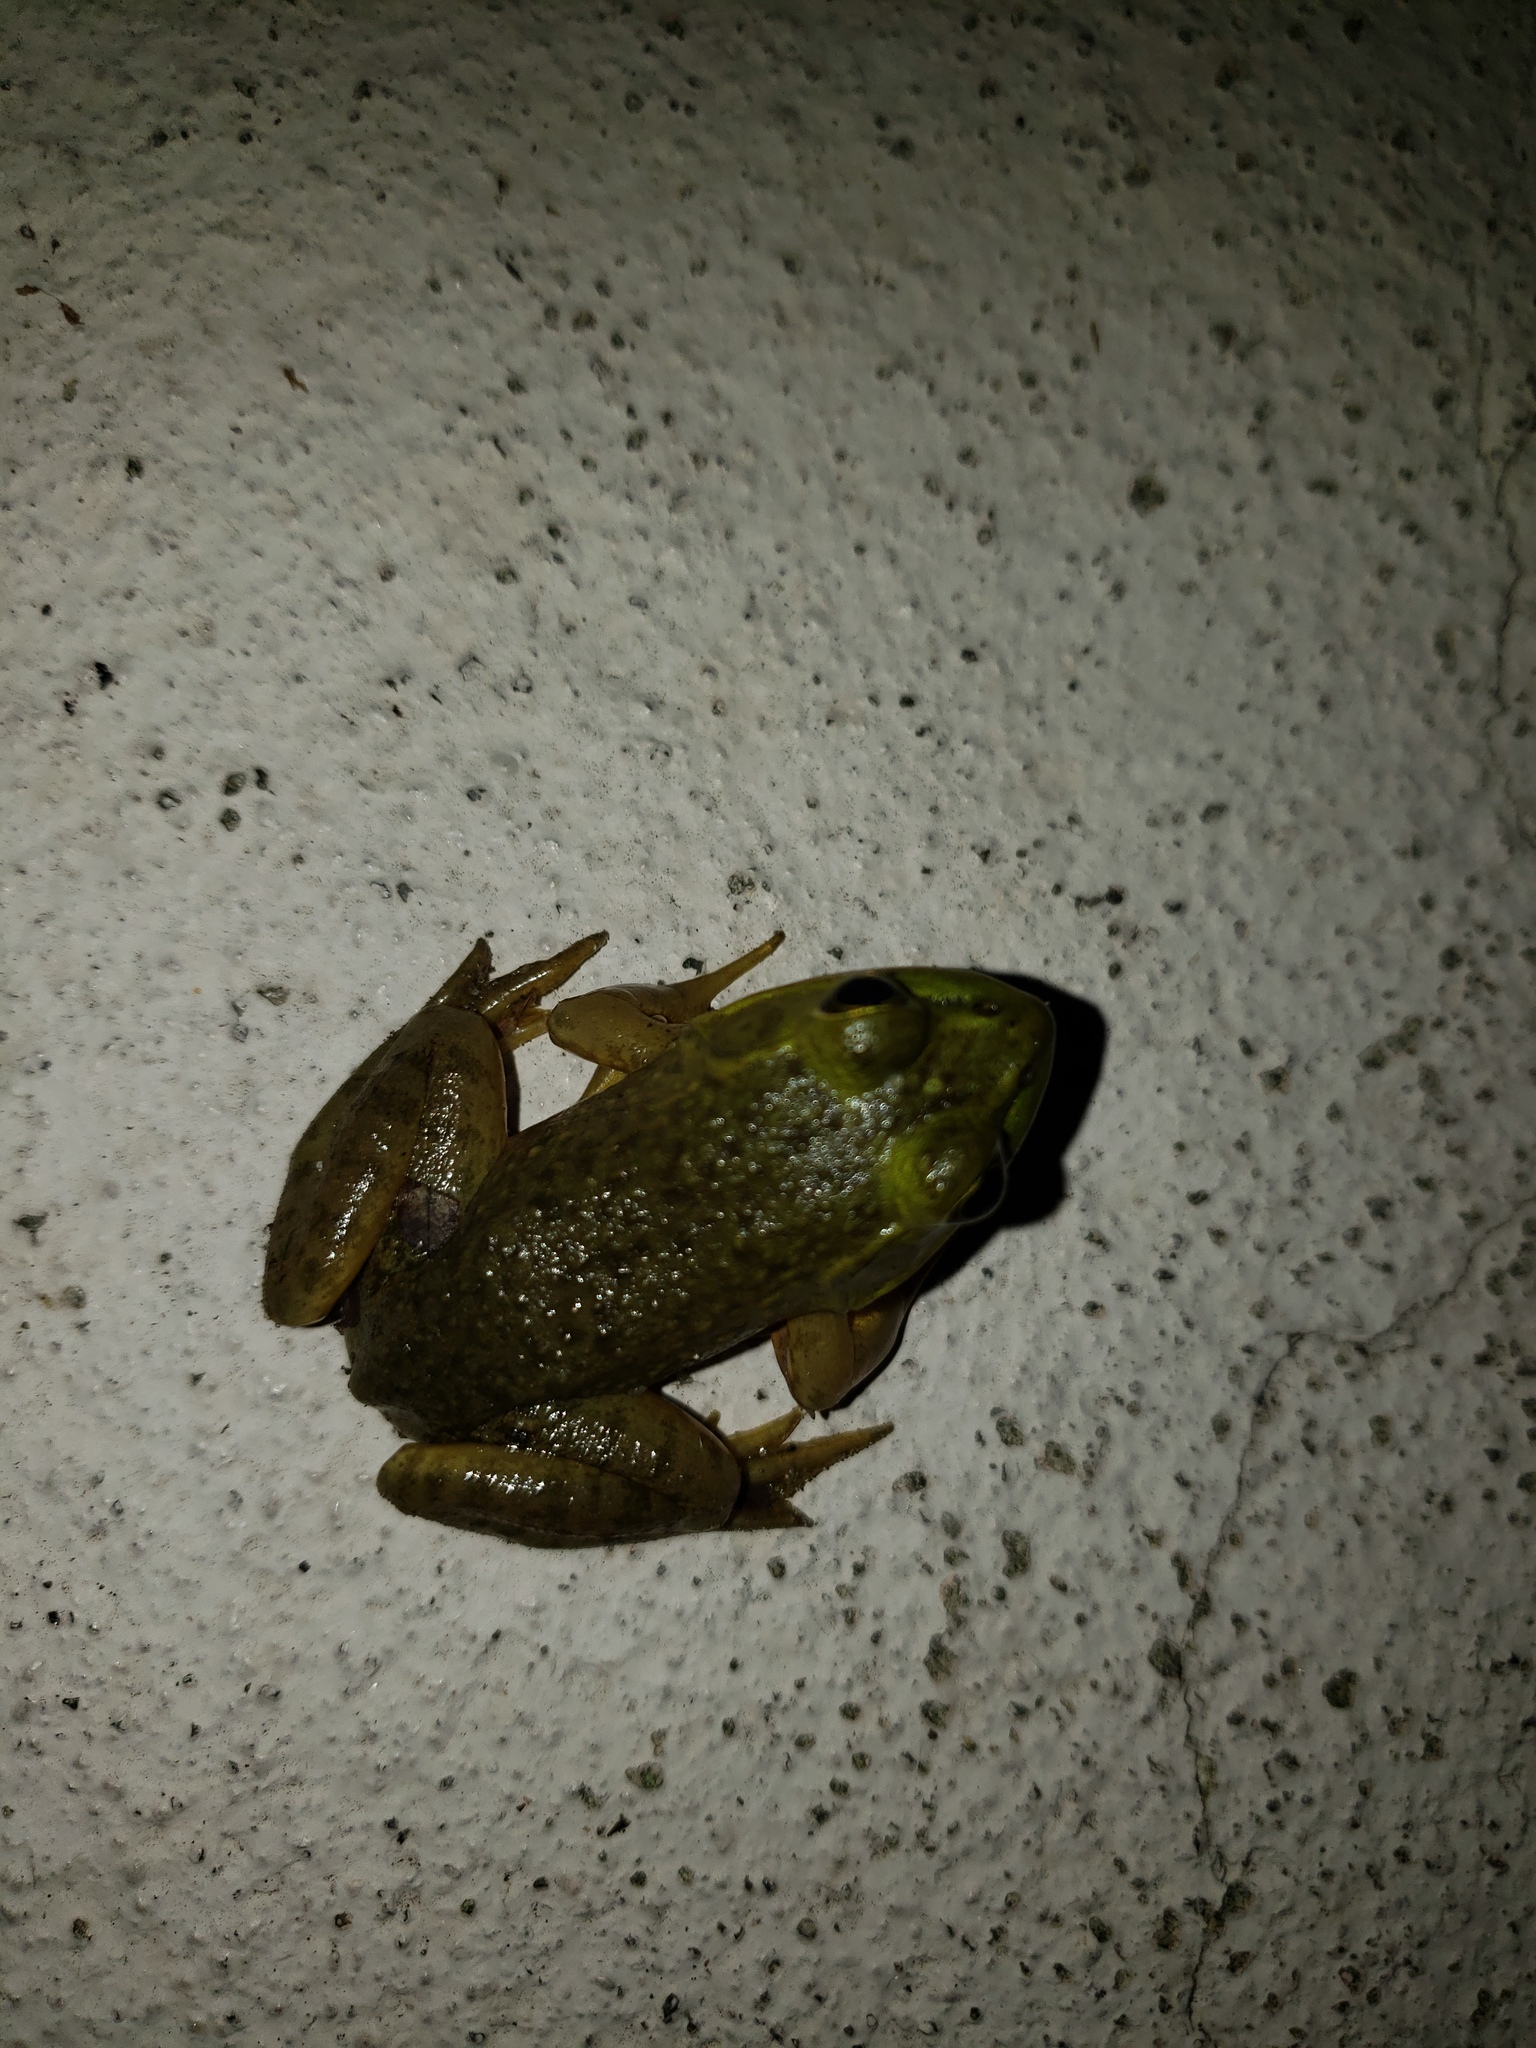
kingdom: Animalia
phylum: Chordata
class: Amphibia
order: Anura
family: Ranidae
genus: Lithobates
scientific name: Lithobates catesbeianus
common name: American bullfrog
